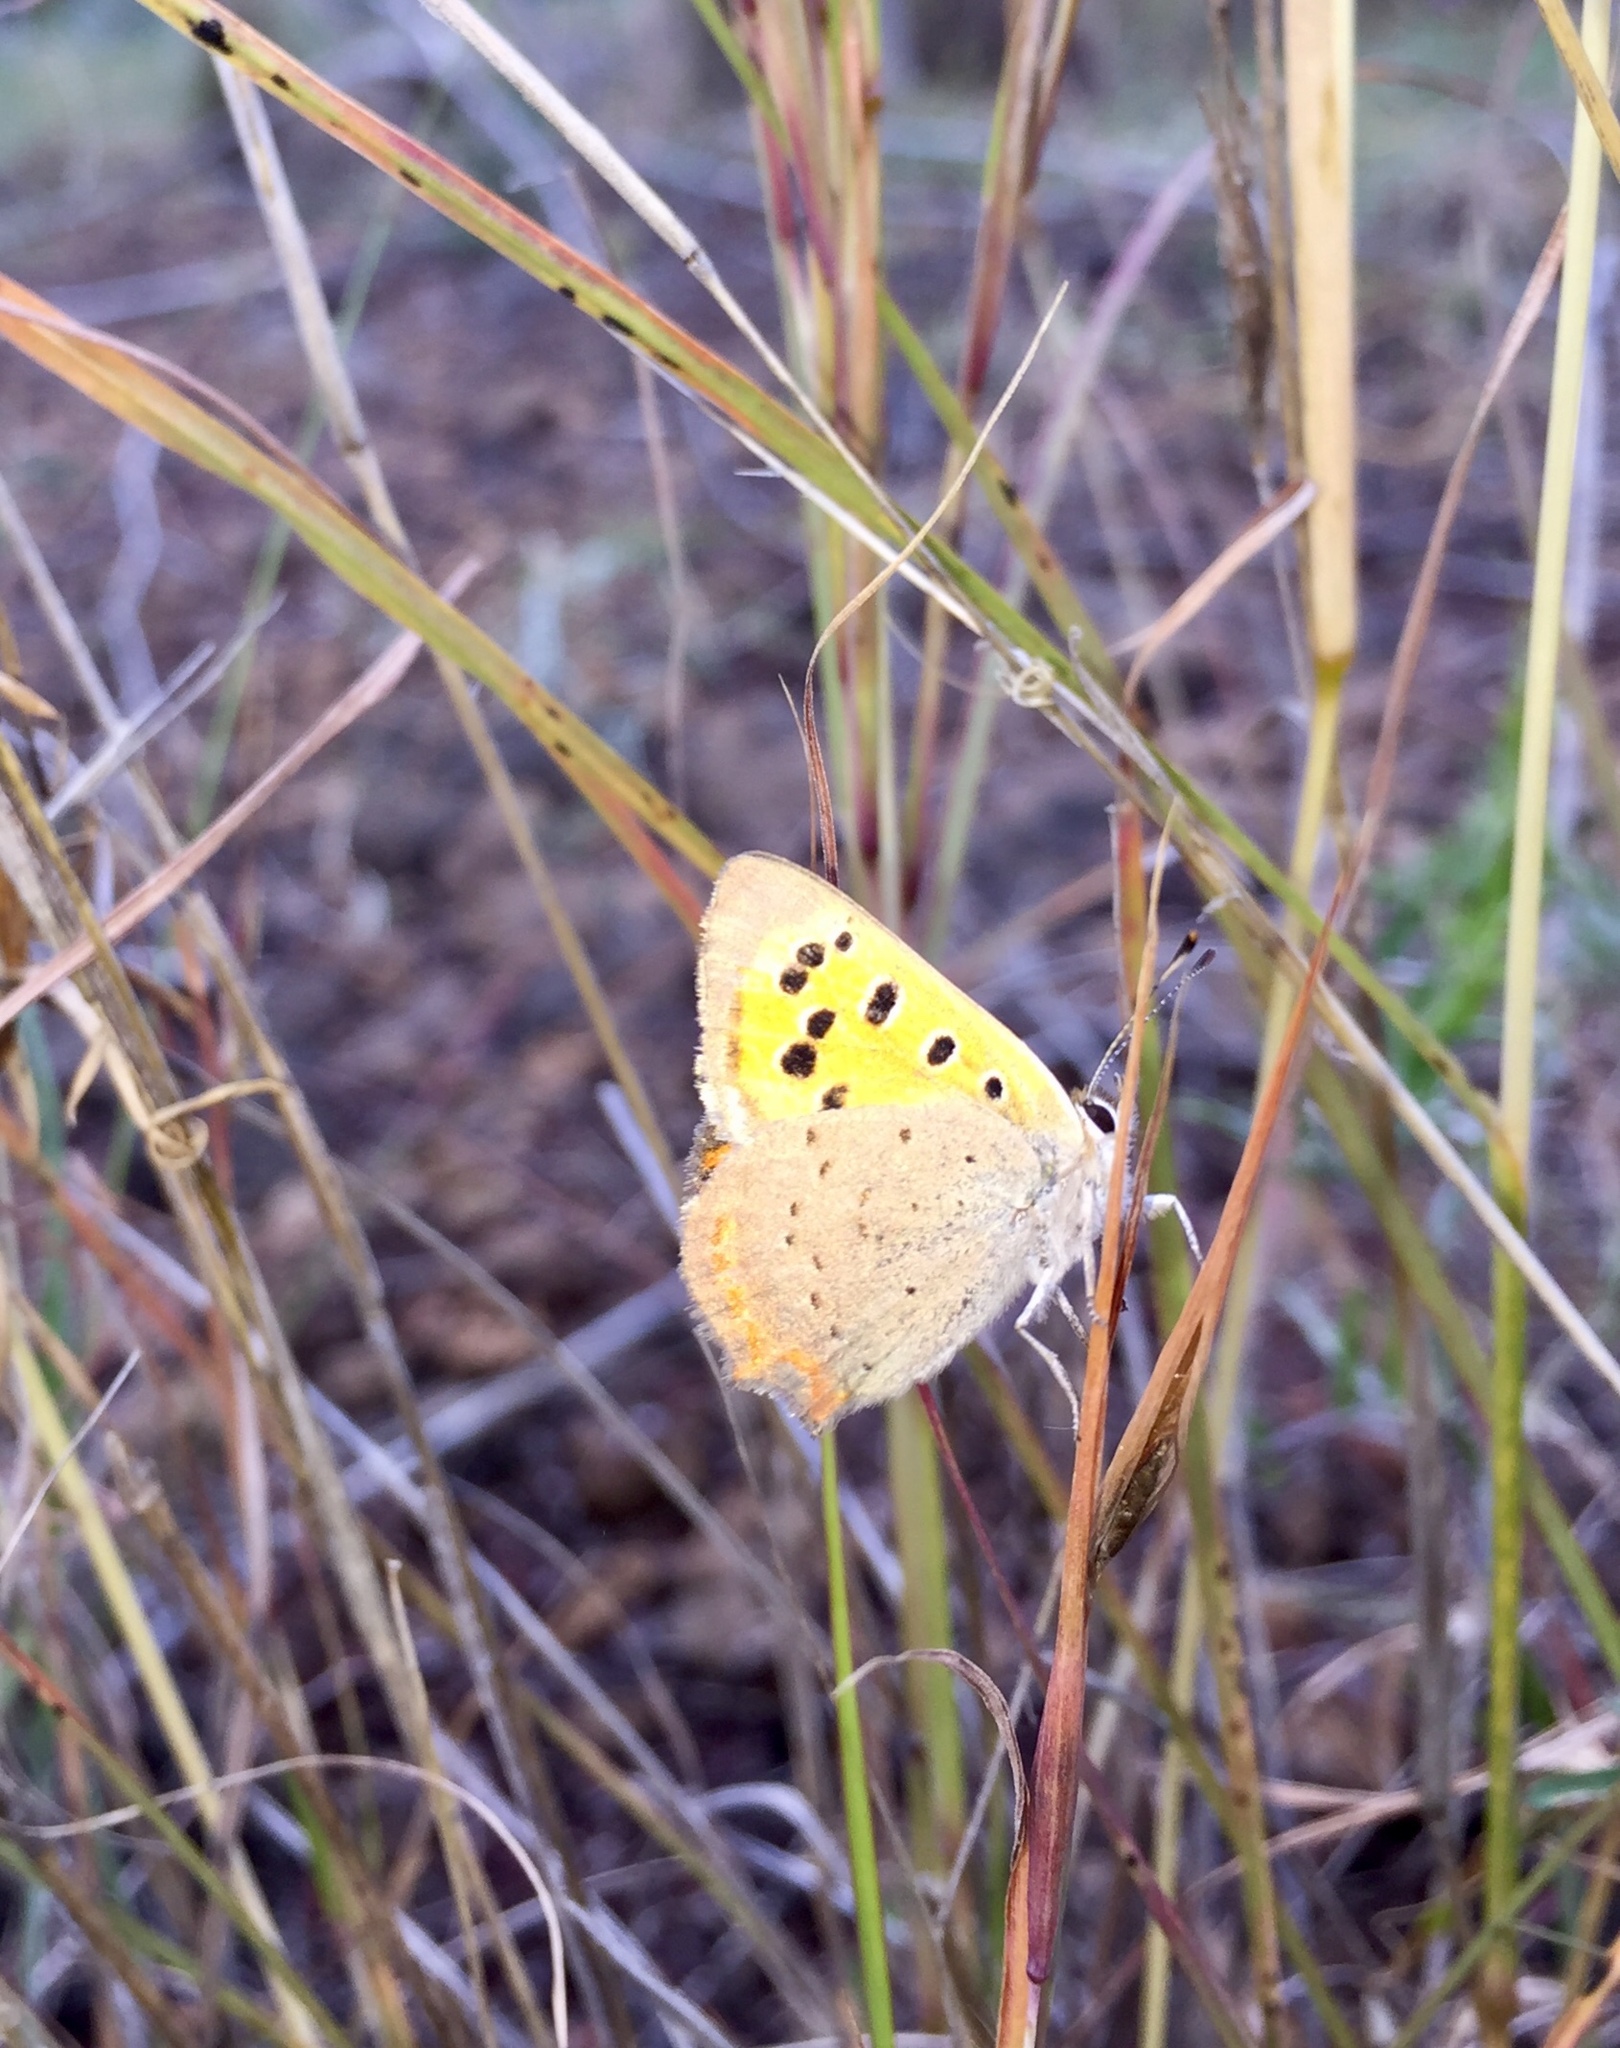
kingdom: Animalia
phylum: Arthropoda
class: Insecta
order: Lepidoptera
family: Lycaenidae
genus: Lycaena
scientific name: Lycaena phlaeas
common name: Small copper
